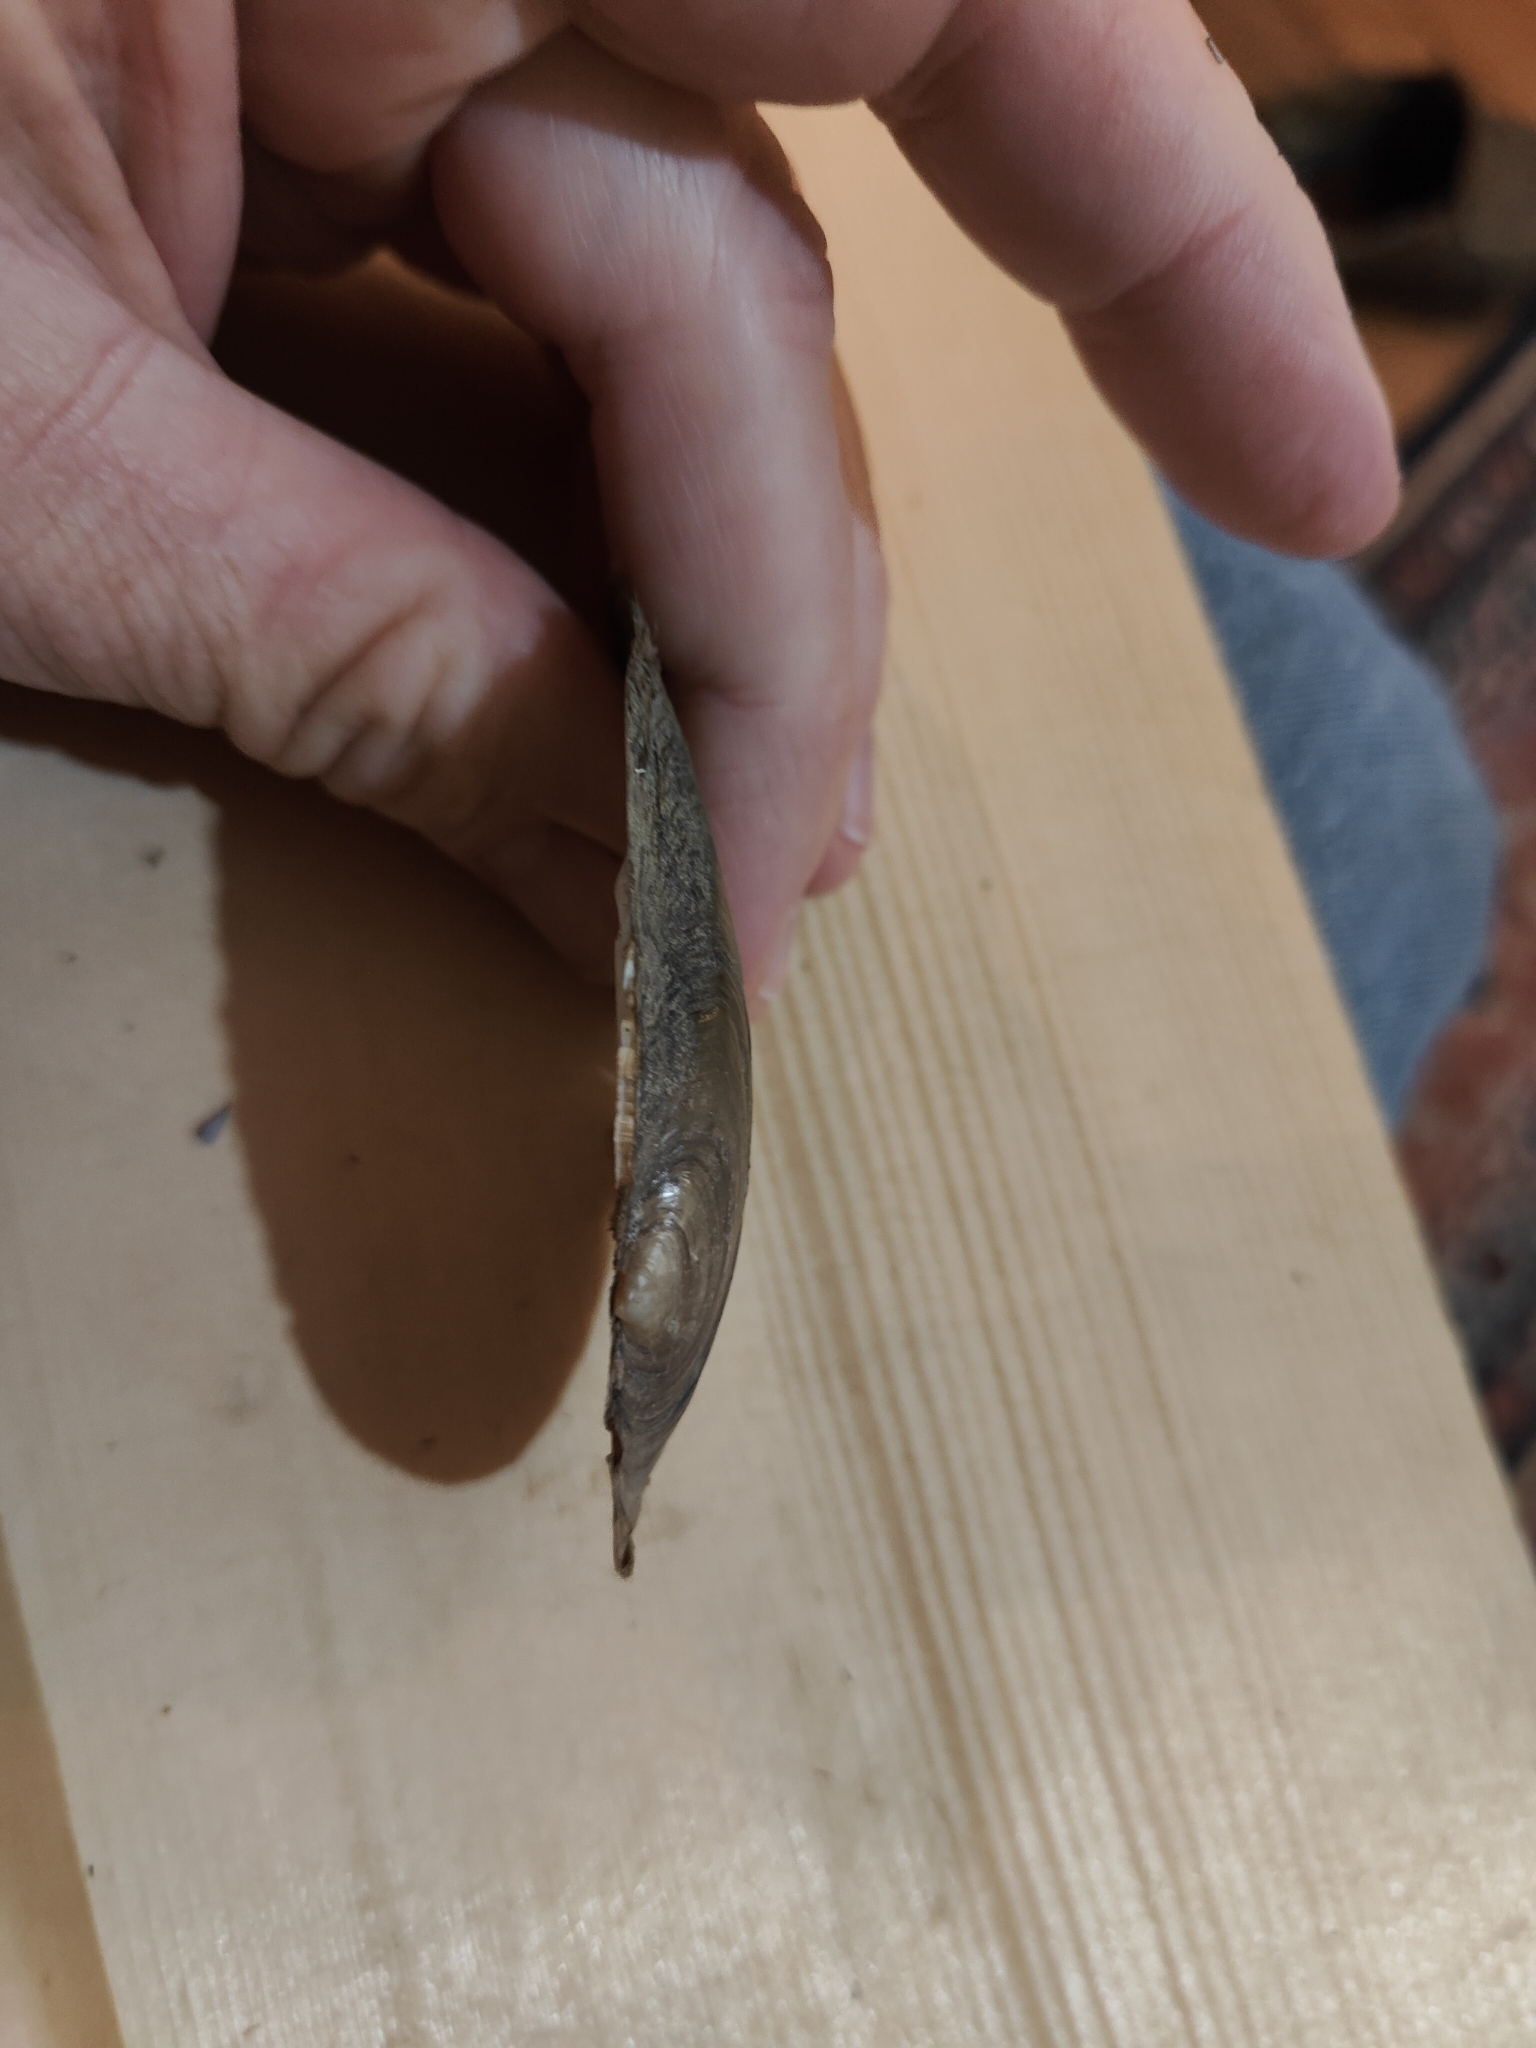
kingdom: Animalia
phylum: Mollusca
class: Bivalvia
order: Unionida
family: Unionidae
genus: Potamilus
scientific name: Potamilus fragilis
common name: Fragile papershell
